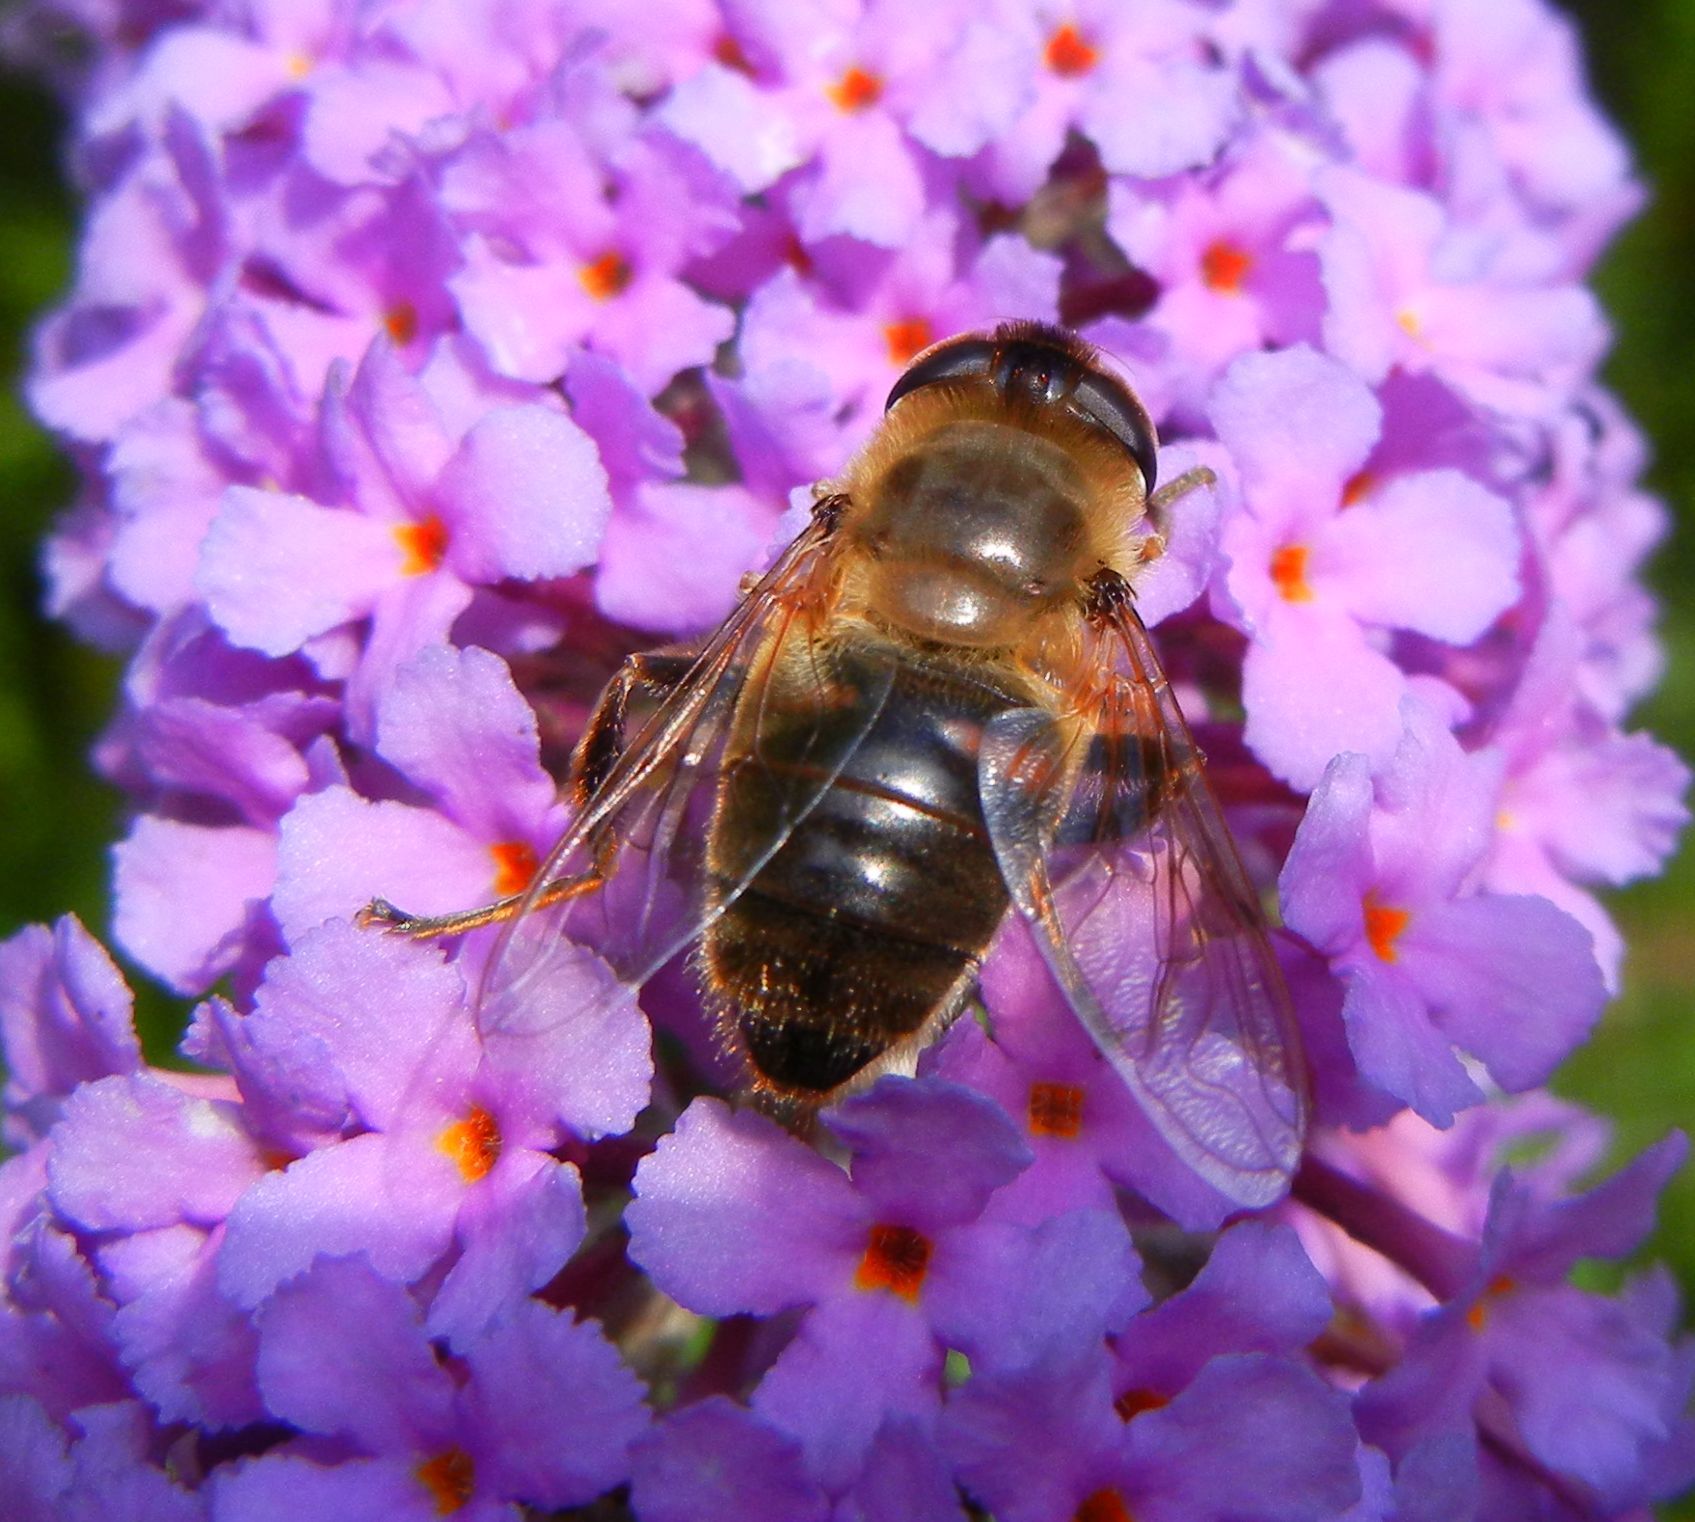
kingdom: Animalia
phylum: Arthropoda
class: Insecta
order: Diptera
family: Syrphidae
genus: Eristalis
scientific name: Eristalis tenax
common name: Drone fly
